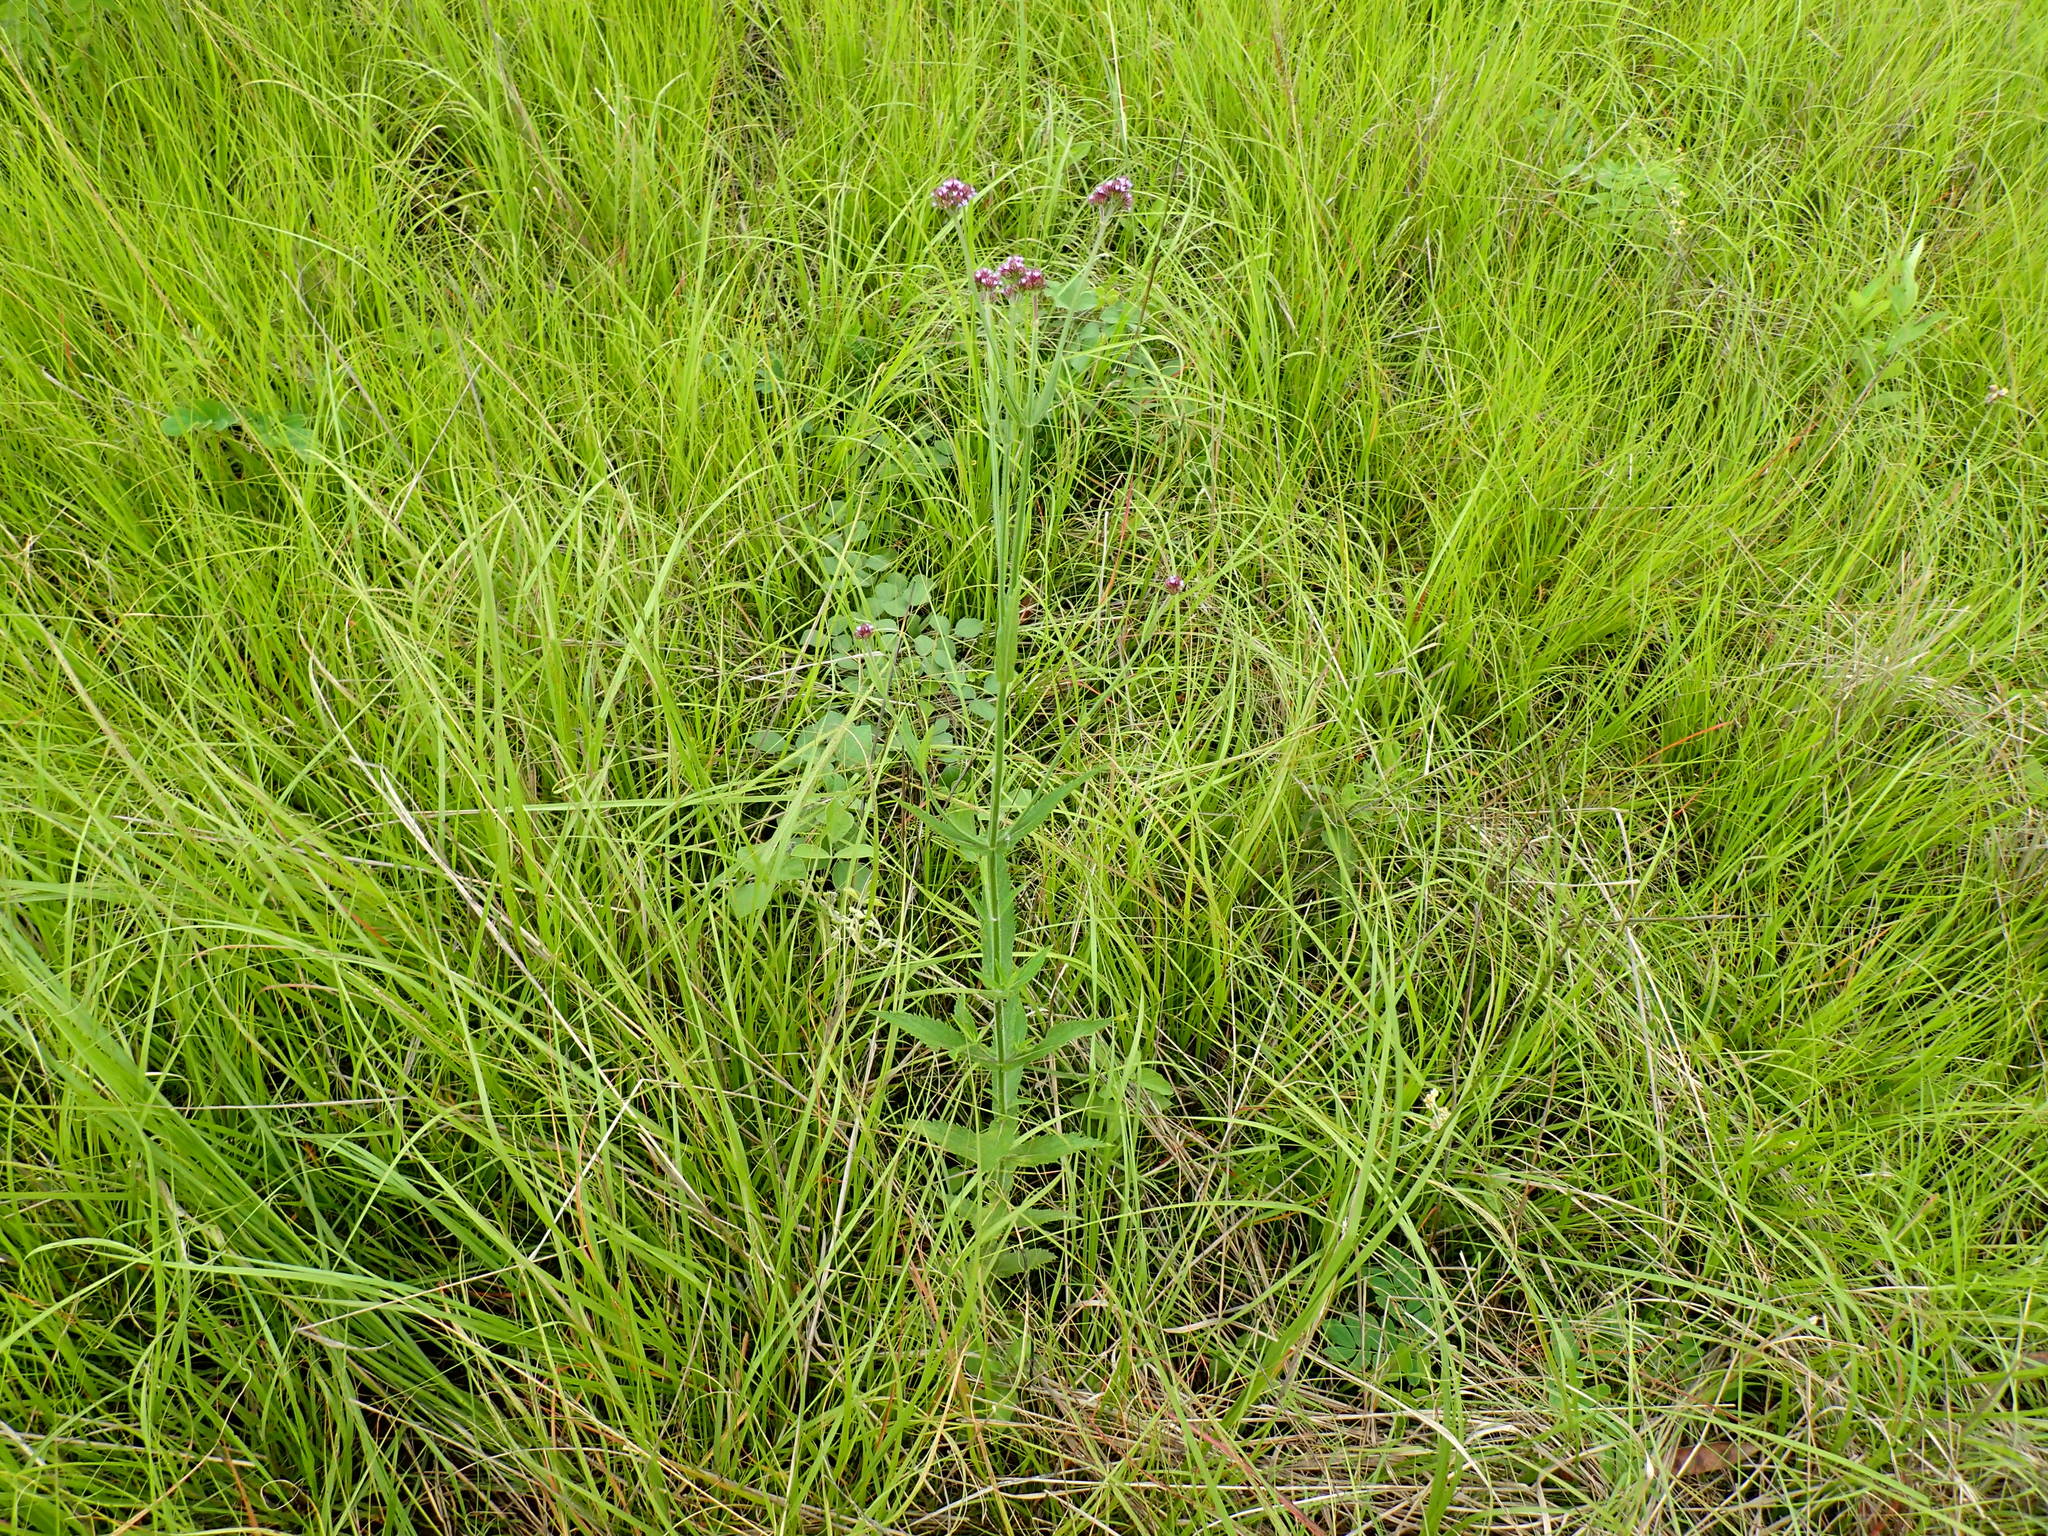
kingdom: Plantae
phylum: Tracheophyta
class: Magnoliopsida
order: Lamiales
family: Verbenaceae
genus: Verbena
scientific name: Verbena bonariensis
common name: Purpletop vervain
